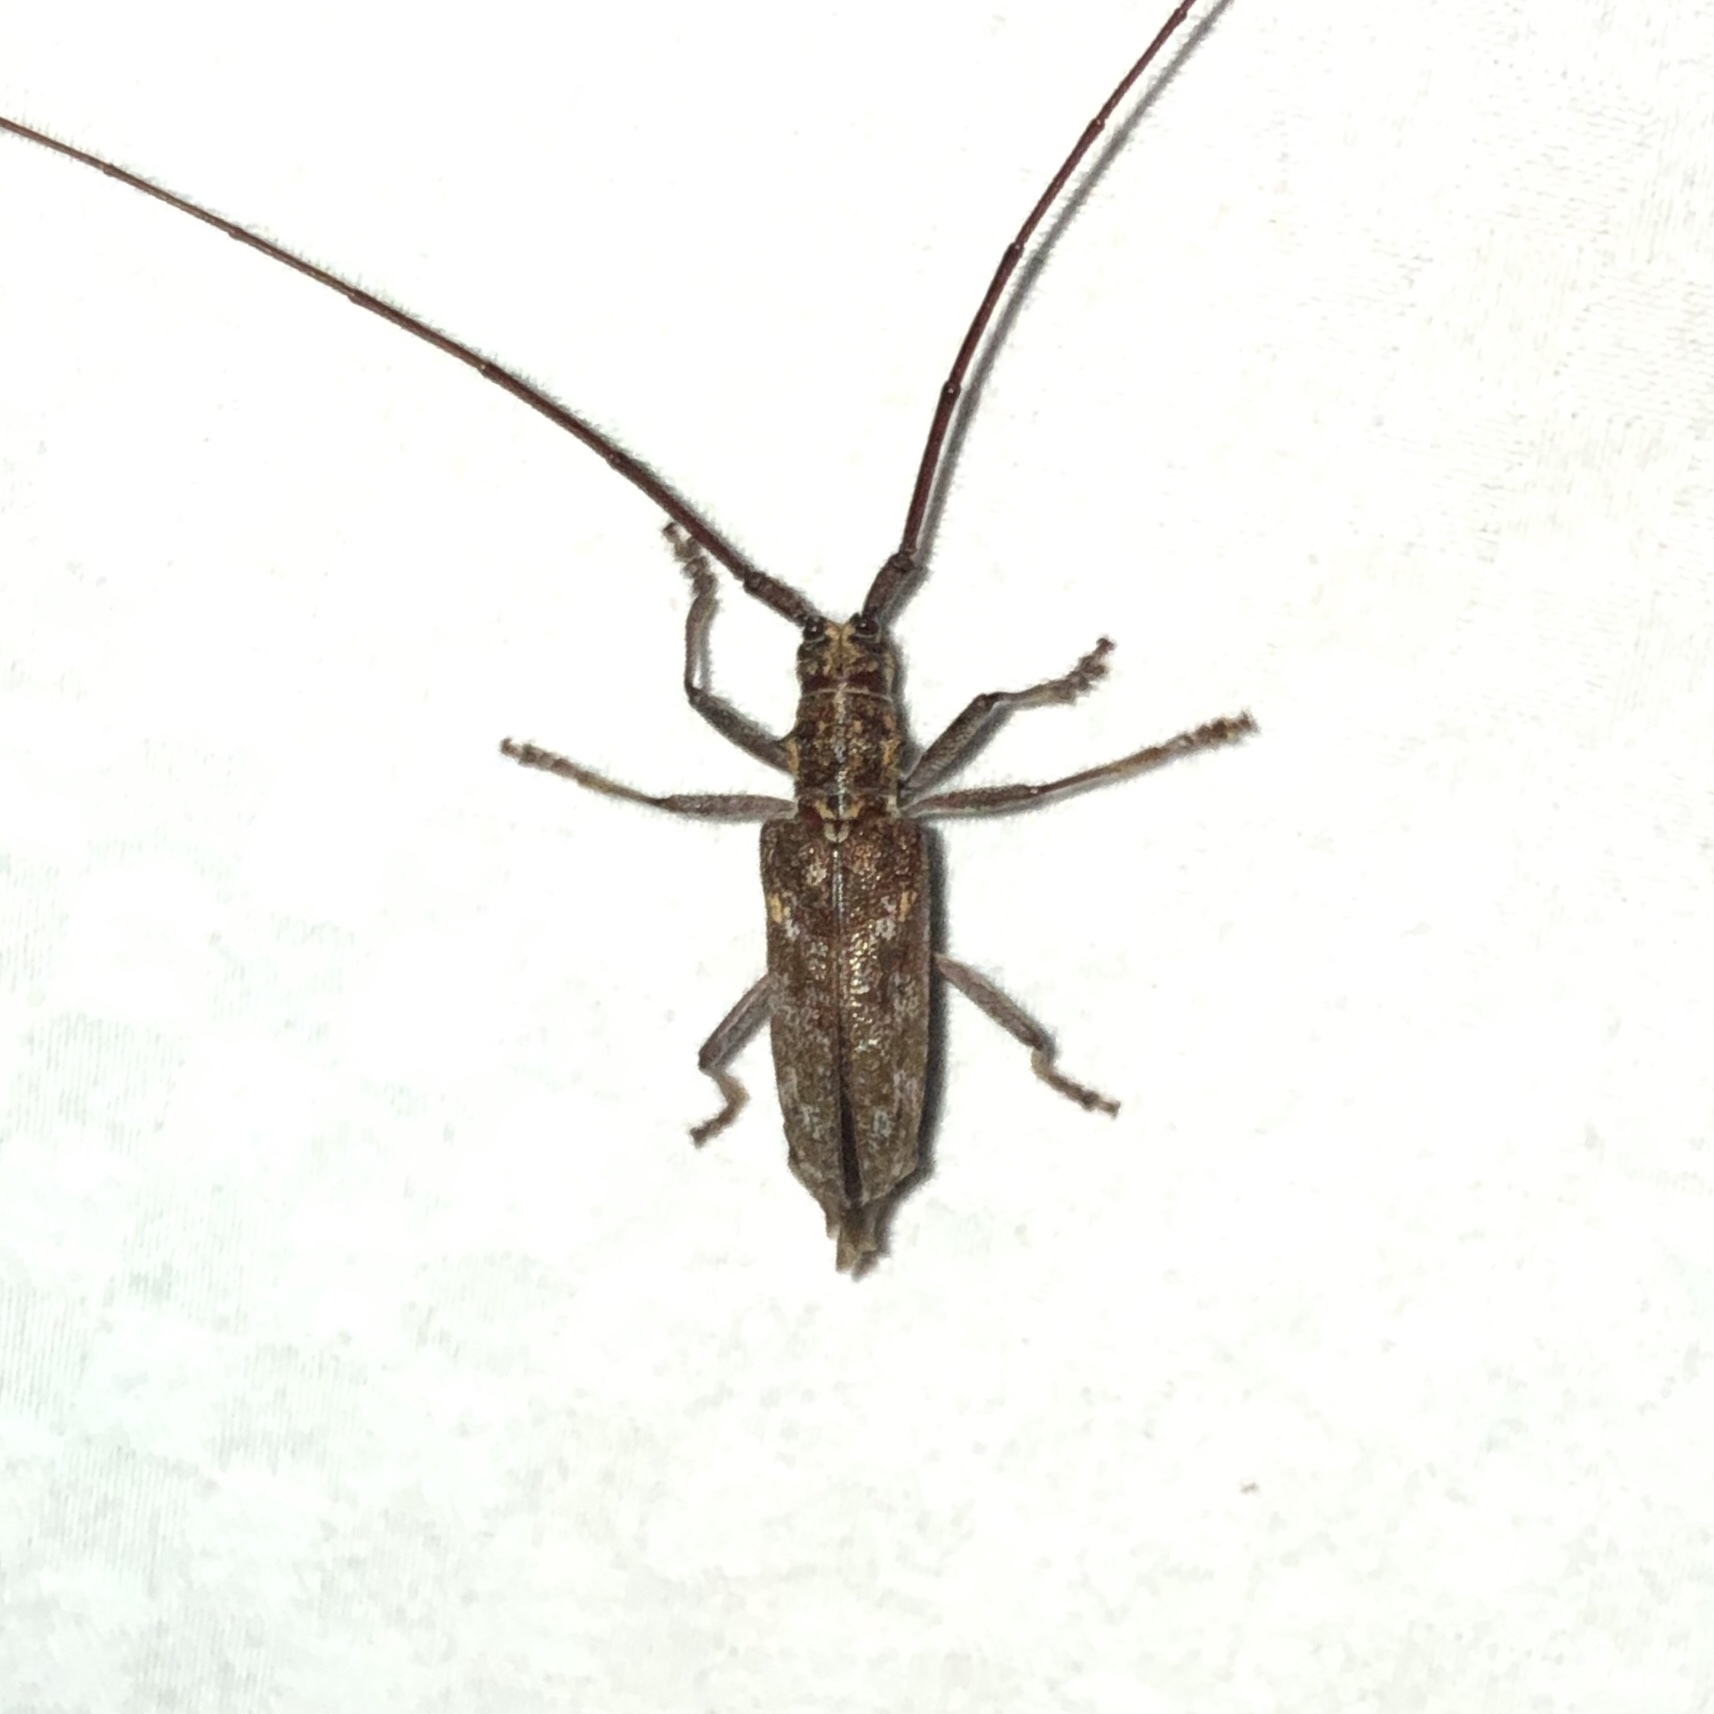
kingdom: Animalia
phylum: Arthropoda
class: Insecta
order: Coleoptera
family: Cerambycidae
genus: Monochamus
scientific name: Monochamus carolinensis
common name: Carolina pine sawyer
